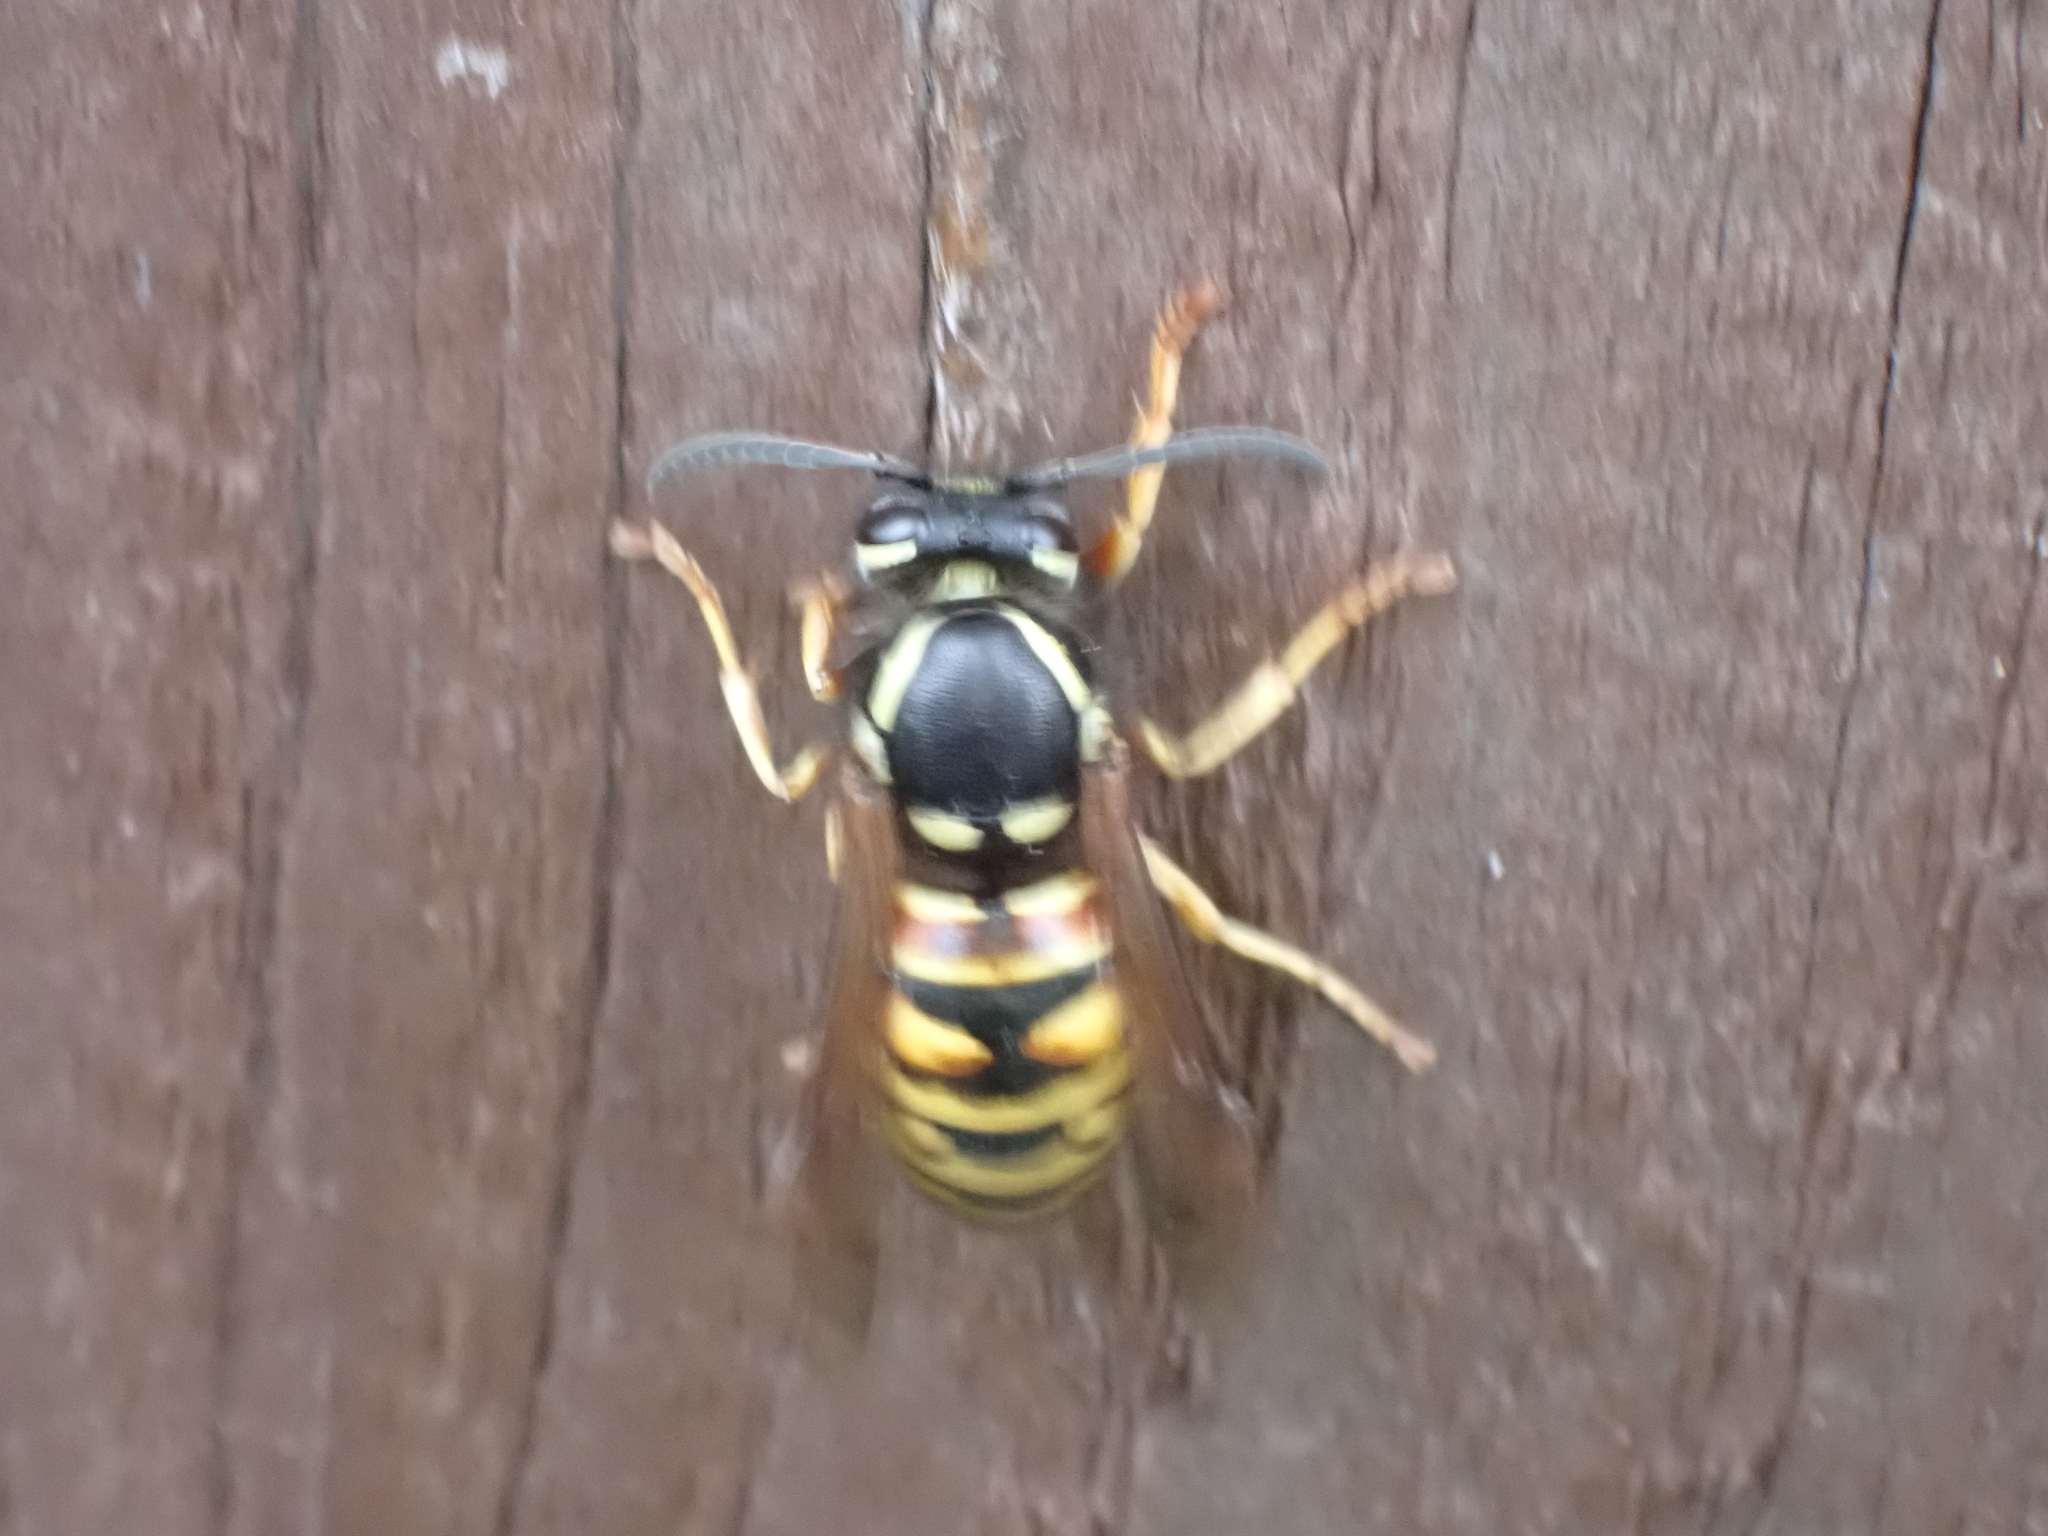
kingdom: Animalia
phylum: Arthropoda
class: Insecta
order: Hymenoptera
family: Vespidae
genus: Vespula
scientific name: Vespula rufa
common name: Red wasp
